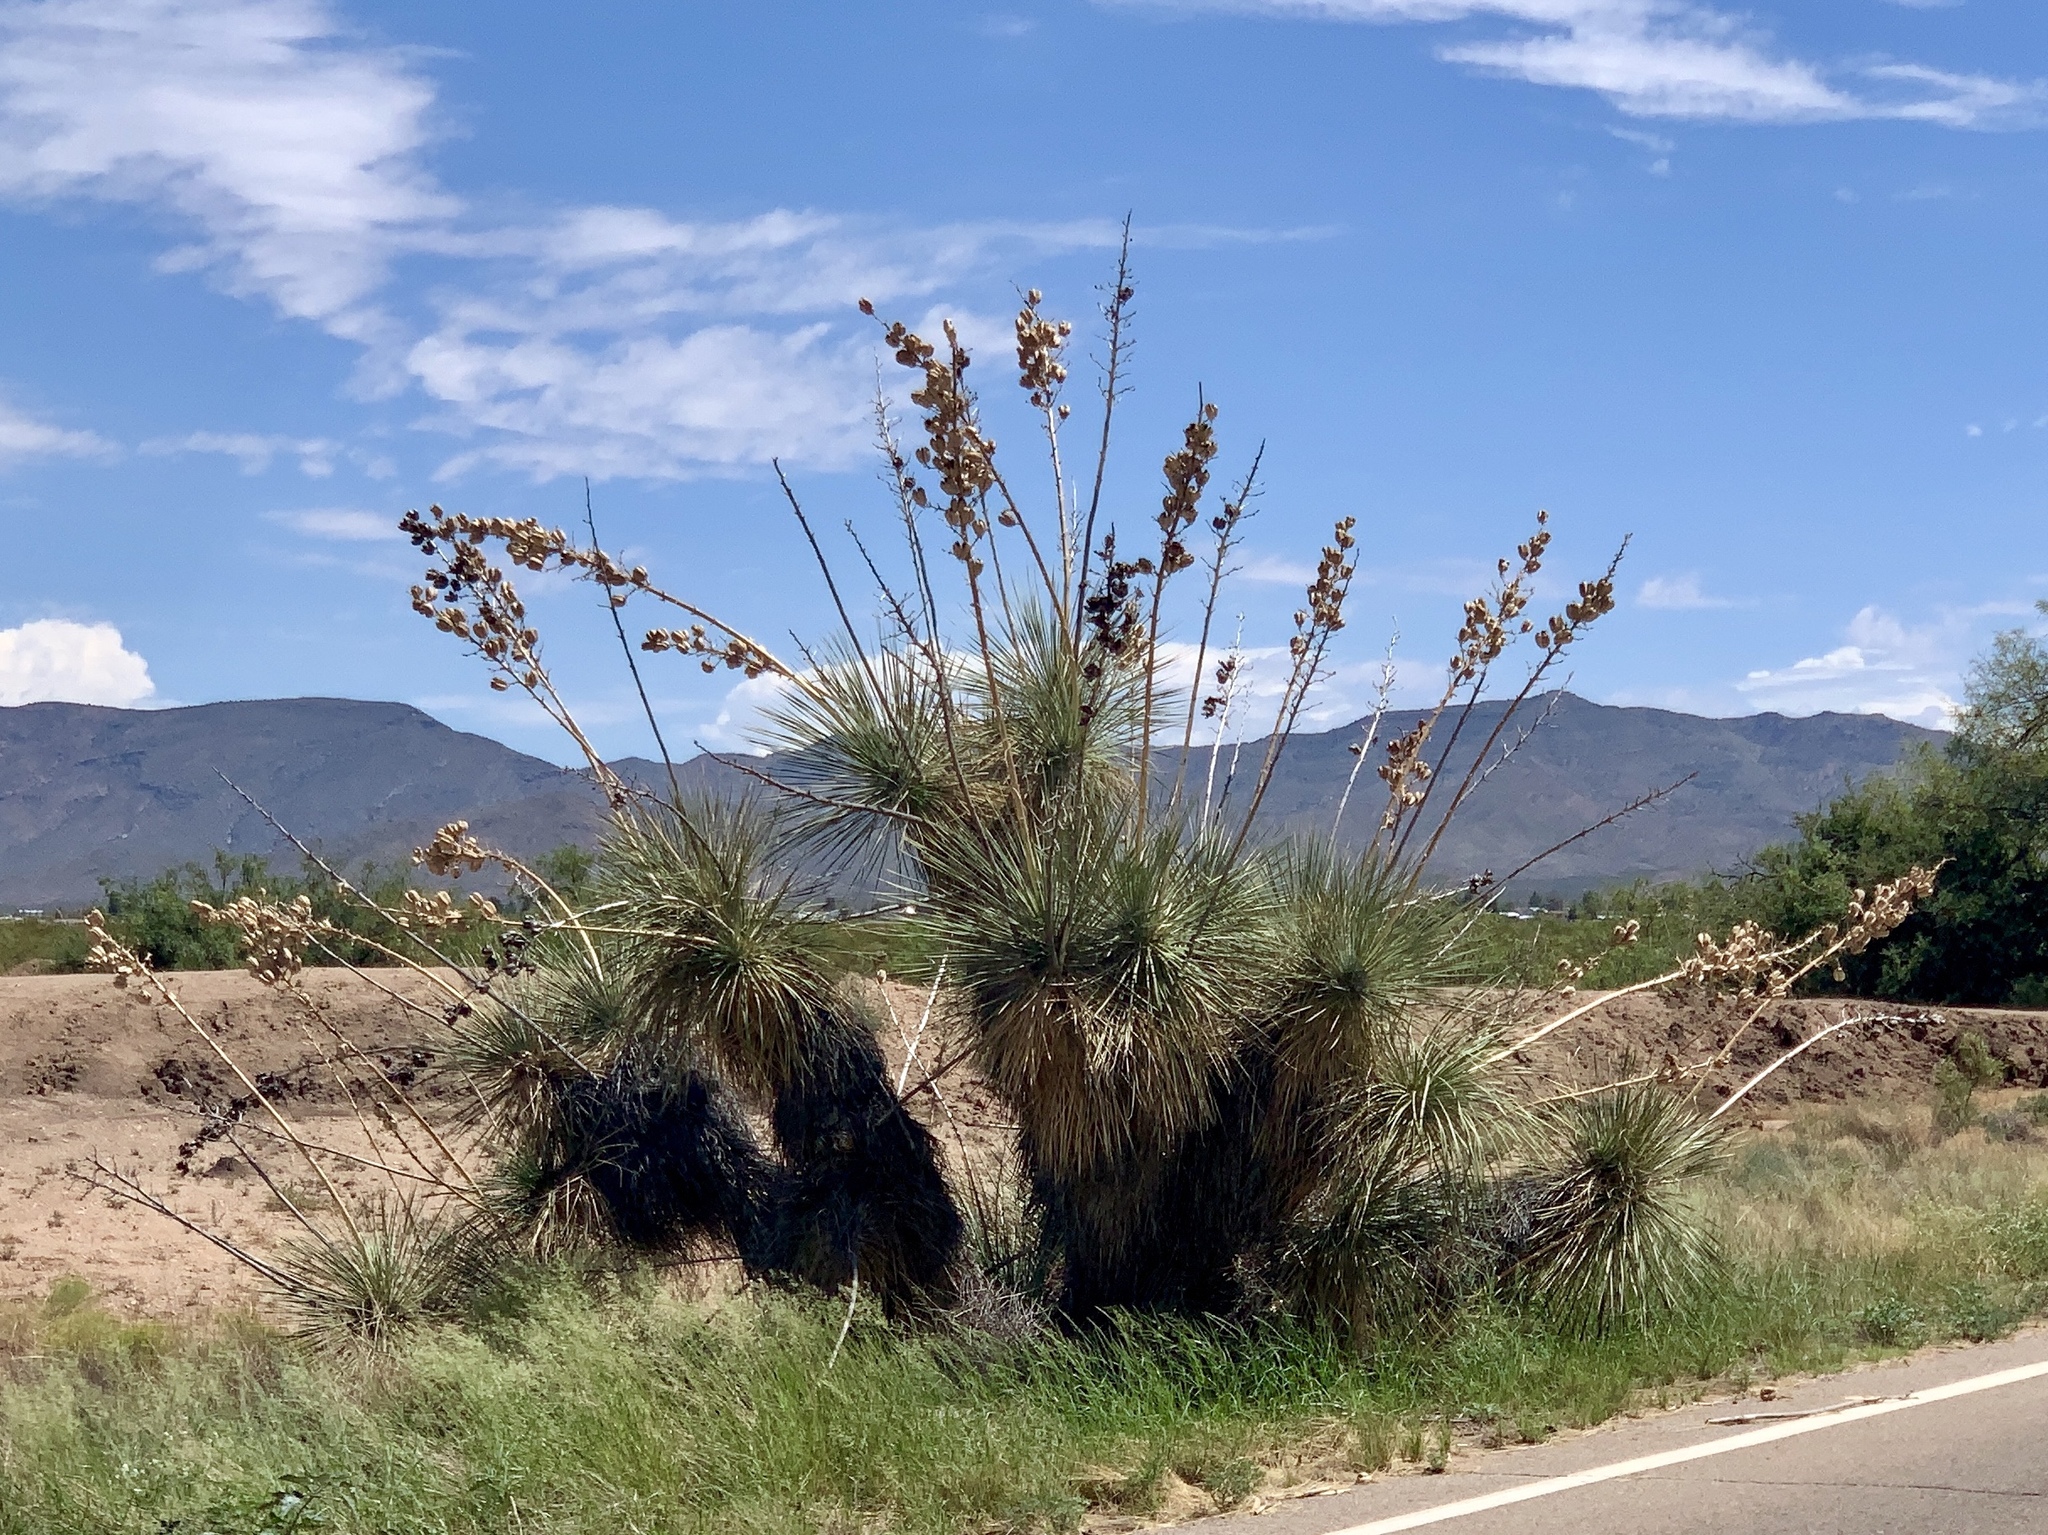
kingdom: Plantae
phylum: Tracheophyta
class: Liliopsida
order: Asparagales
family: Asparagaceae
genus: Yucca
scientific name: Yucca elata
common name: Palmella
